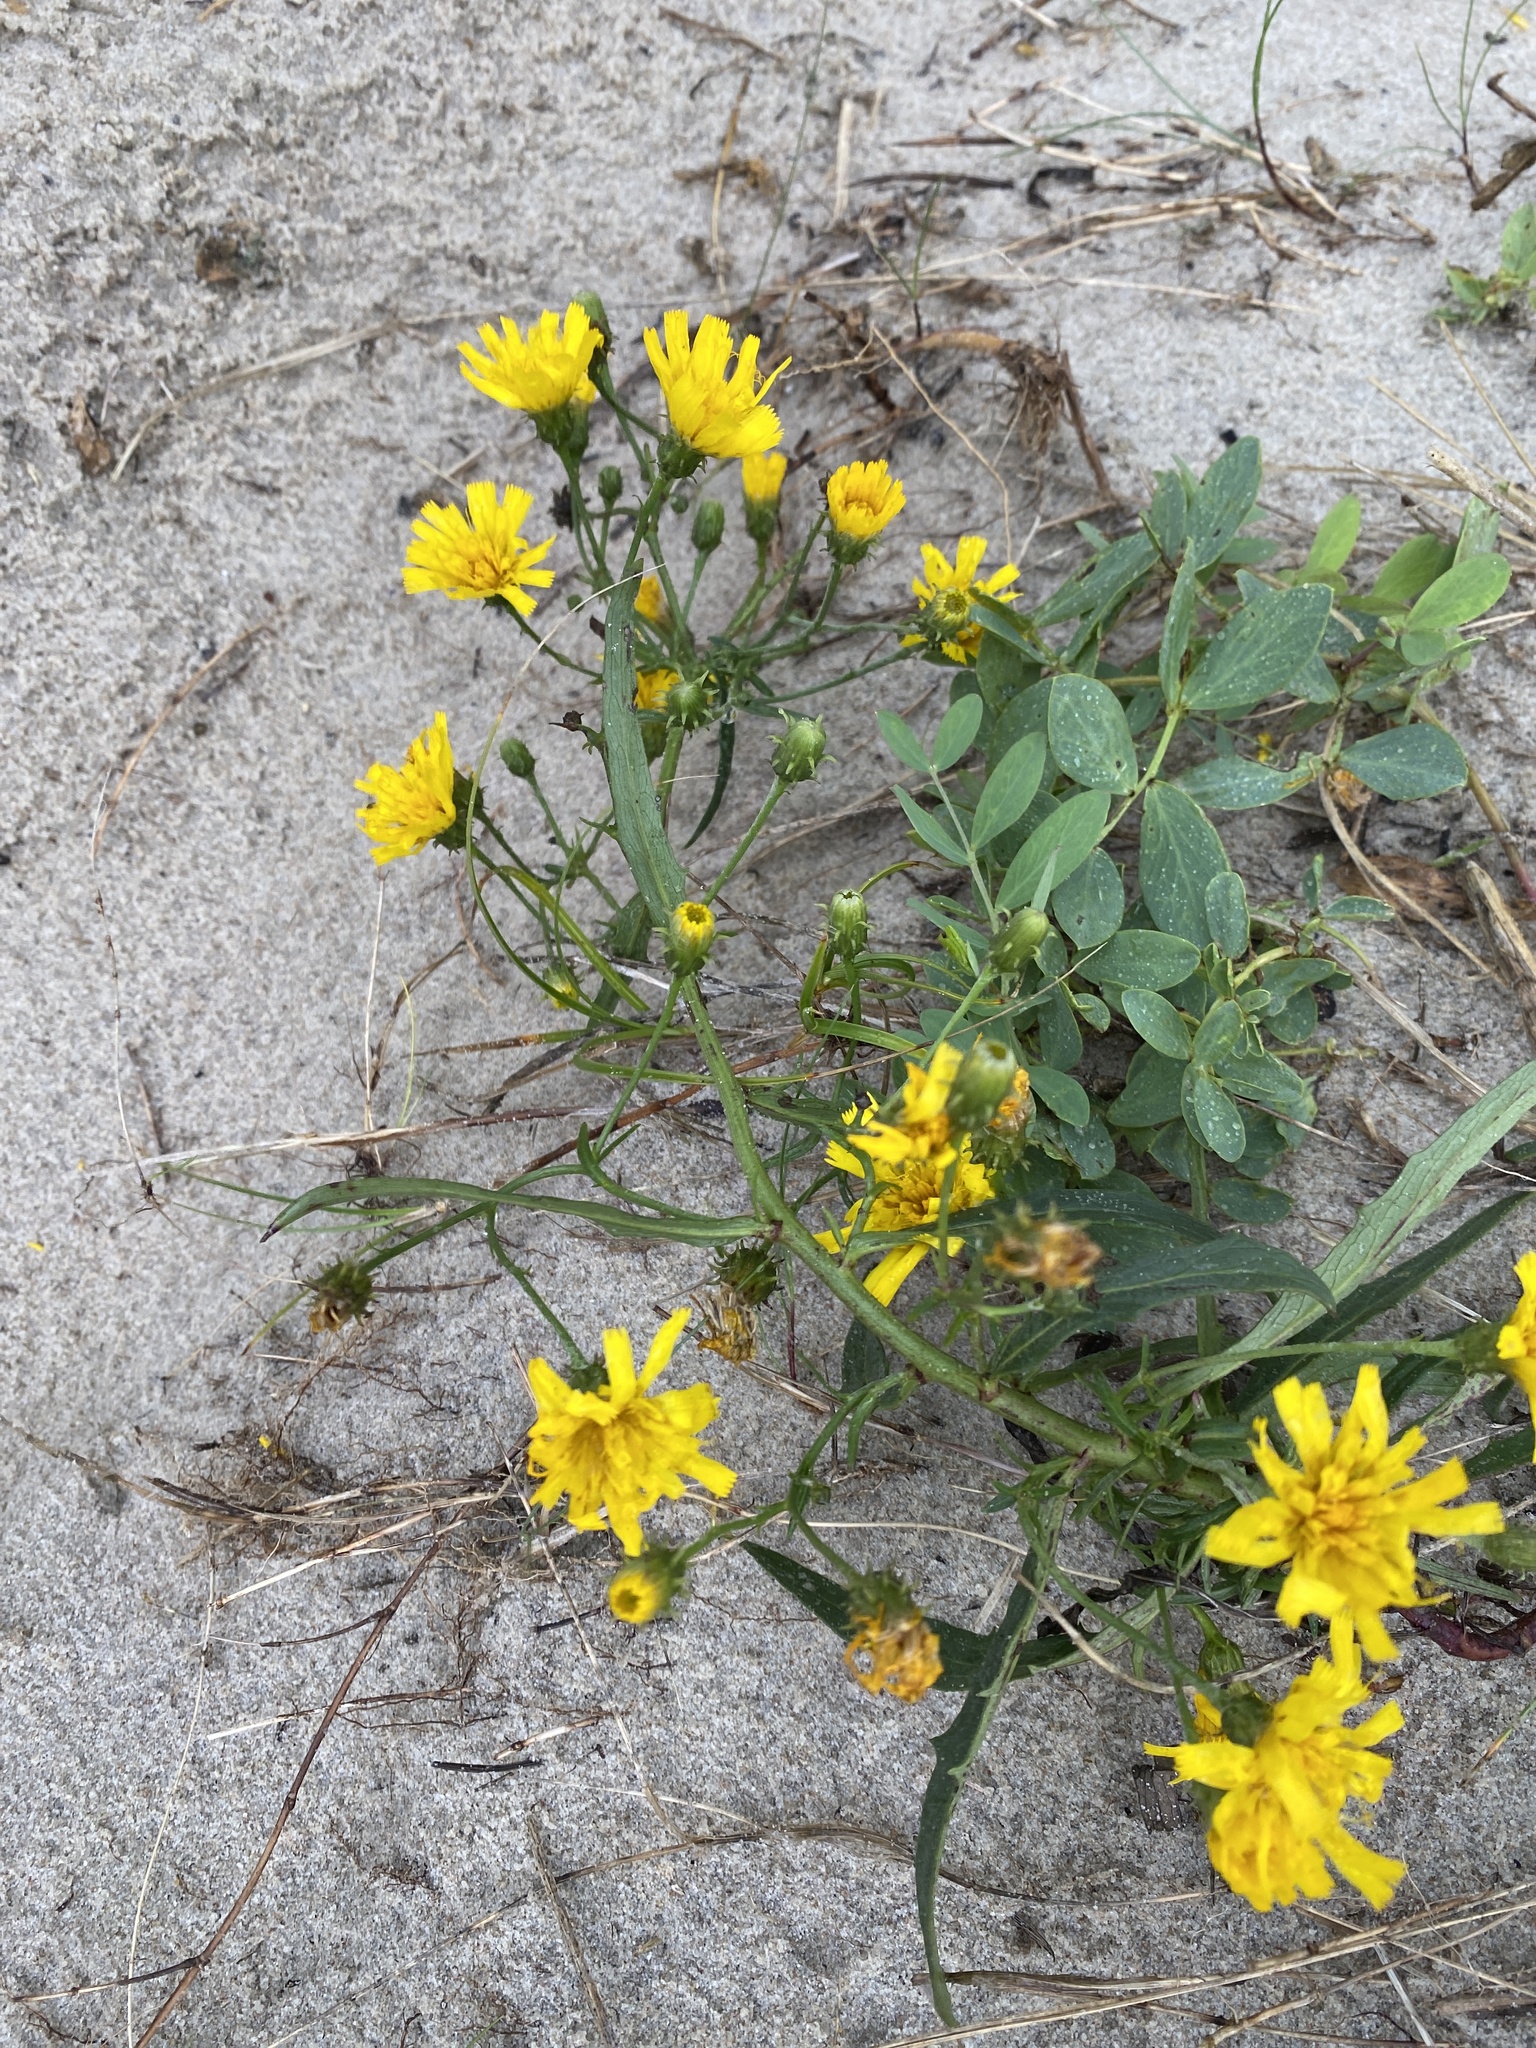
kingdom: Plantae
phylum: Tracheophyta
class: Magnoliopsida
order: Asterales
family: Asteraceae
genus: Hieracium
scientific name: Hieracium umbellatum
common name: Northern hawkweed
